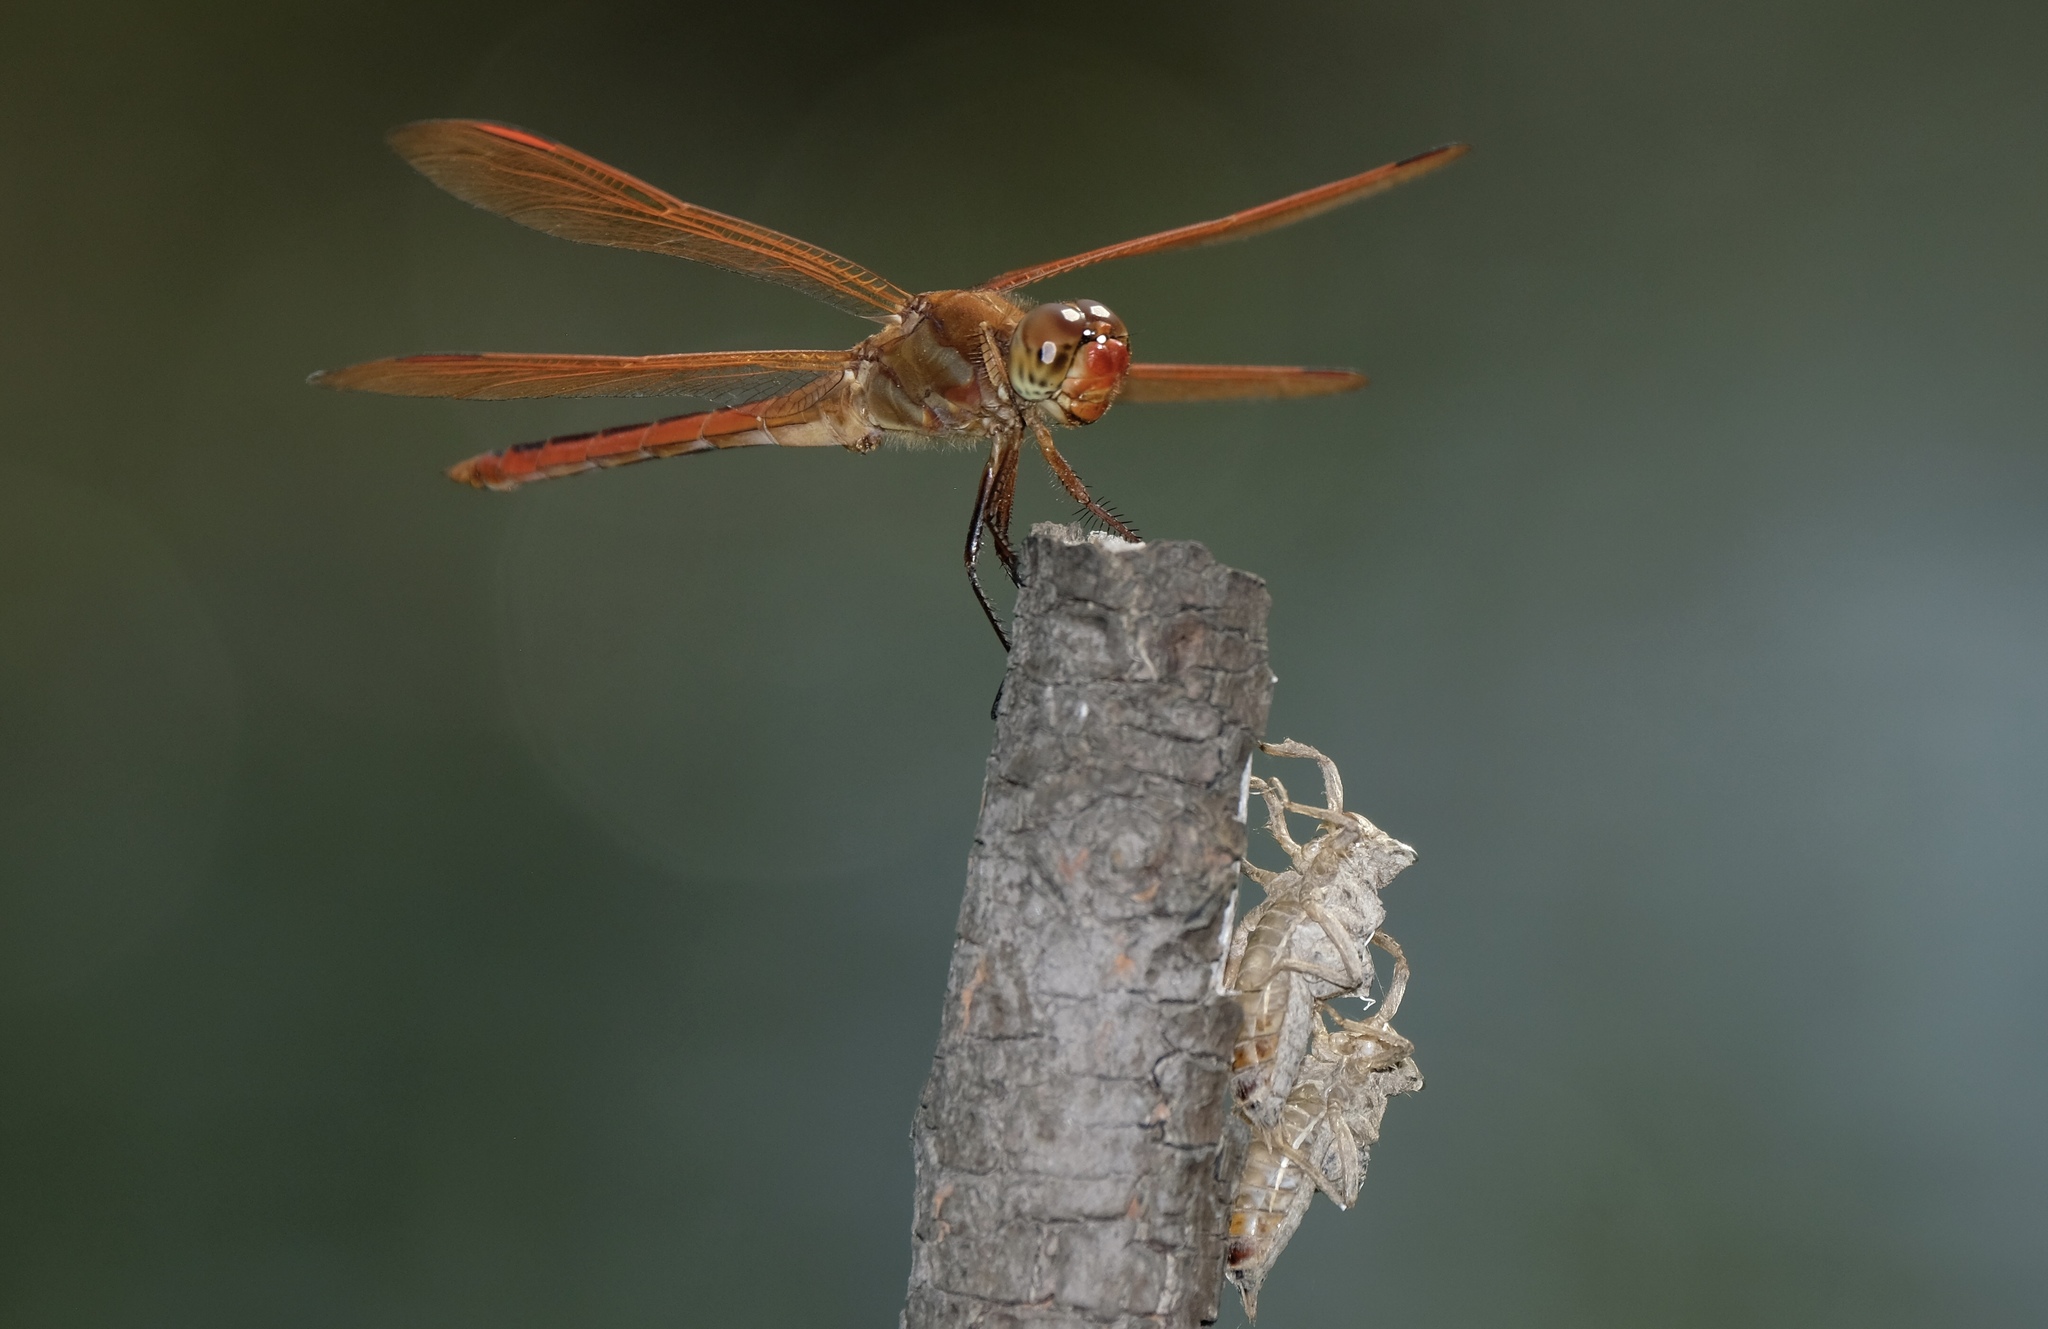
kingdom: Animalia
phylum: Arthropoda
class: Insecta
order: Odonata
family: Libellulidae
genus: Libellula
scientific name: Libellula auripennis
